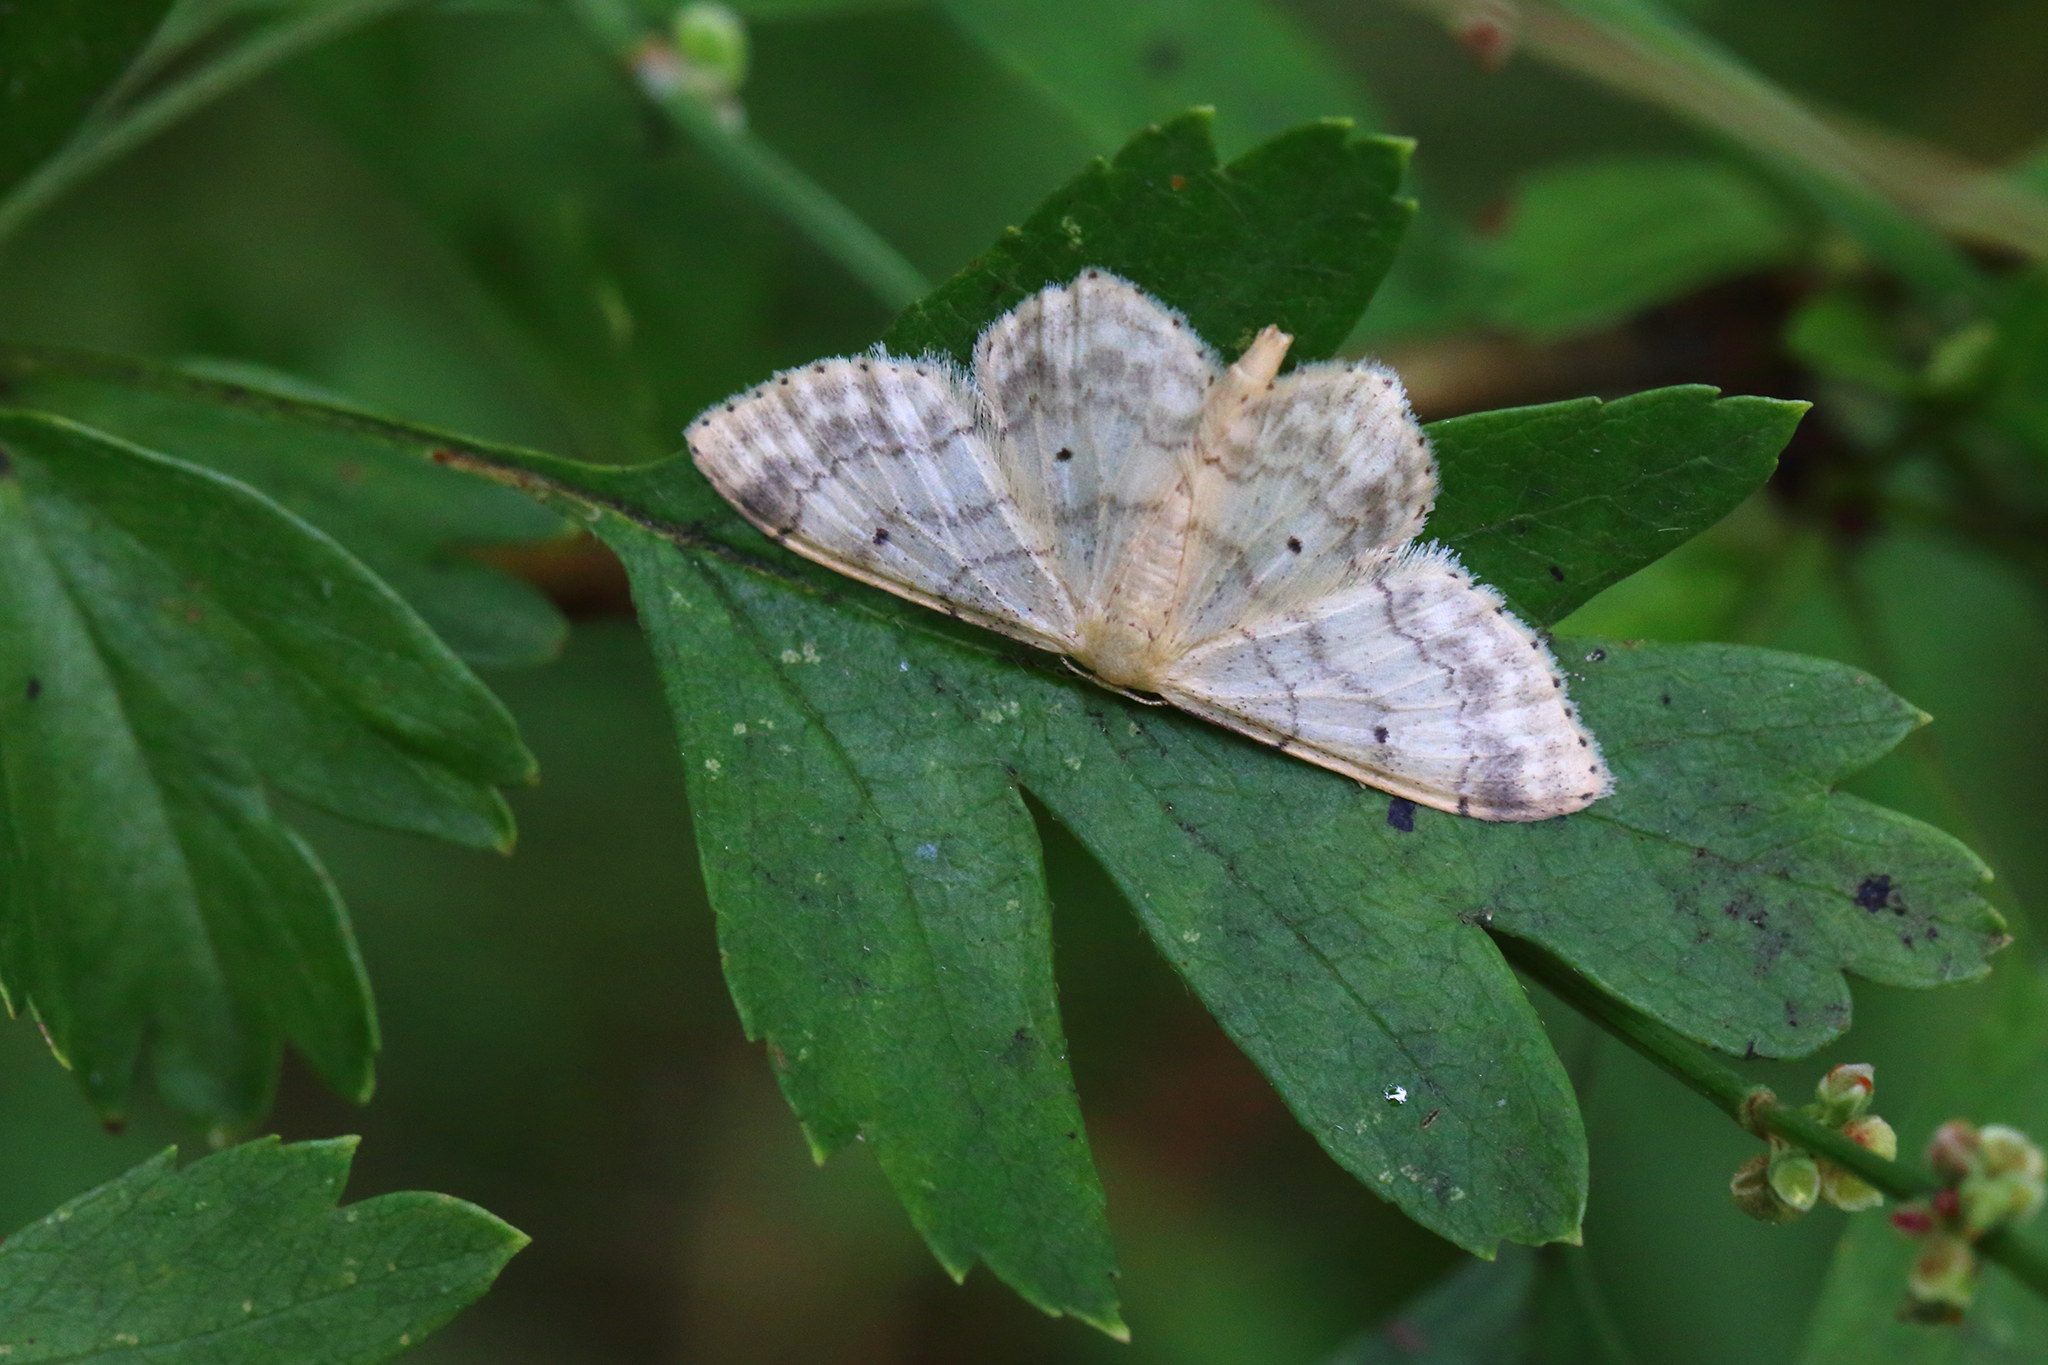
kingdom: Animalia
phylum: Arthropoda
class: Insecta
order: Lepidoptera
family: Geometridae
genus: Idaea
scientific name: Idaea biselata
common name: Small fan-footed wave
